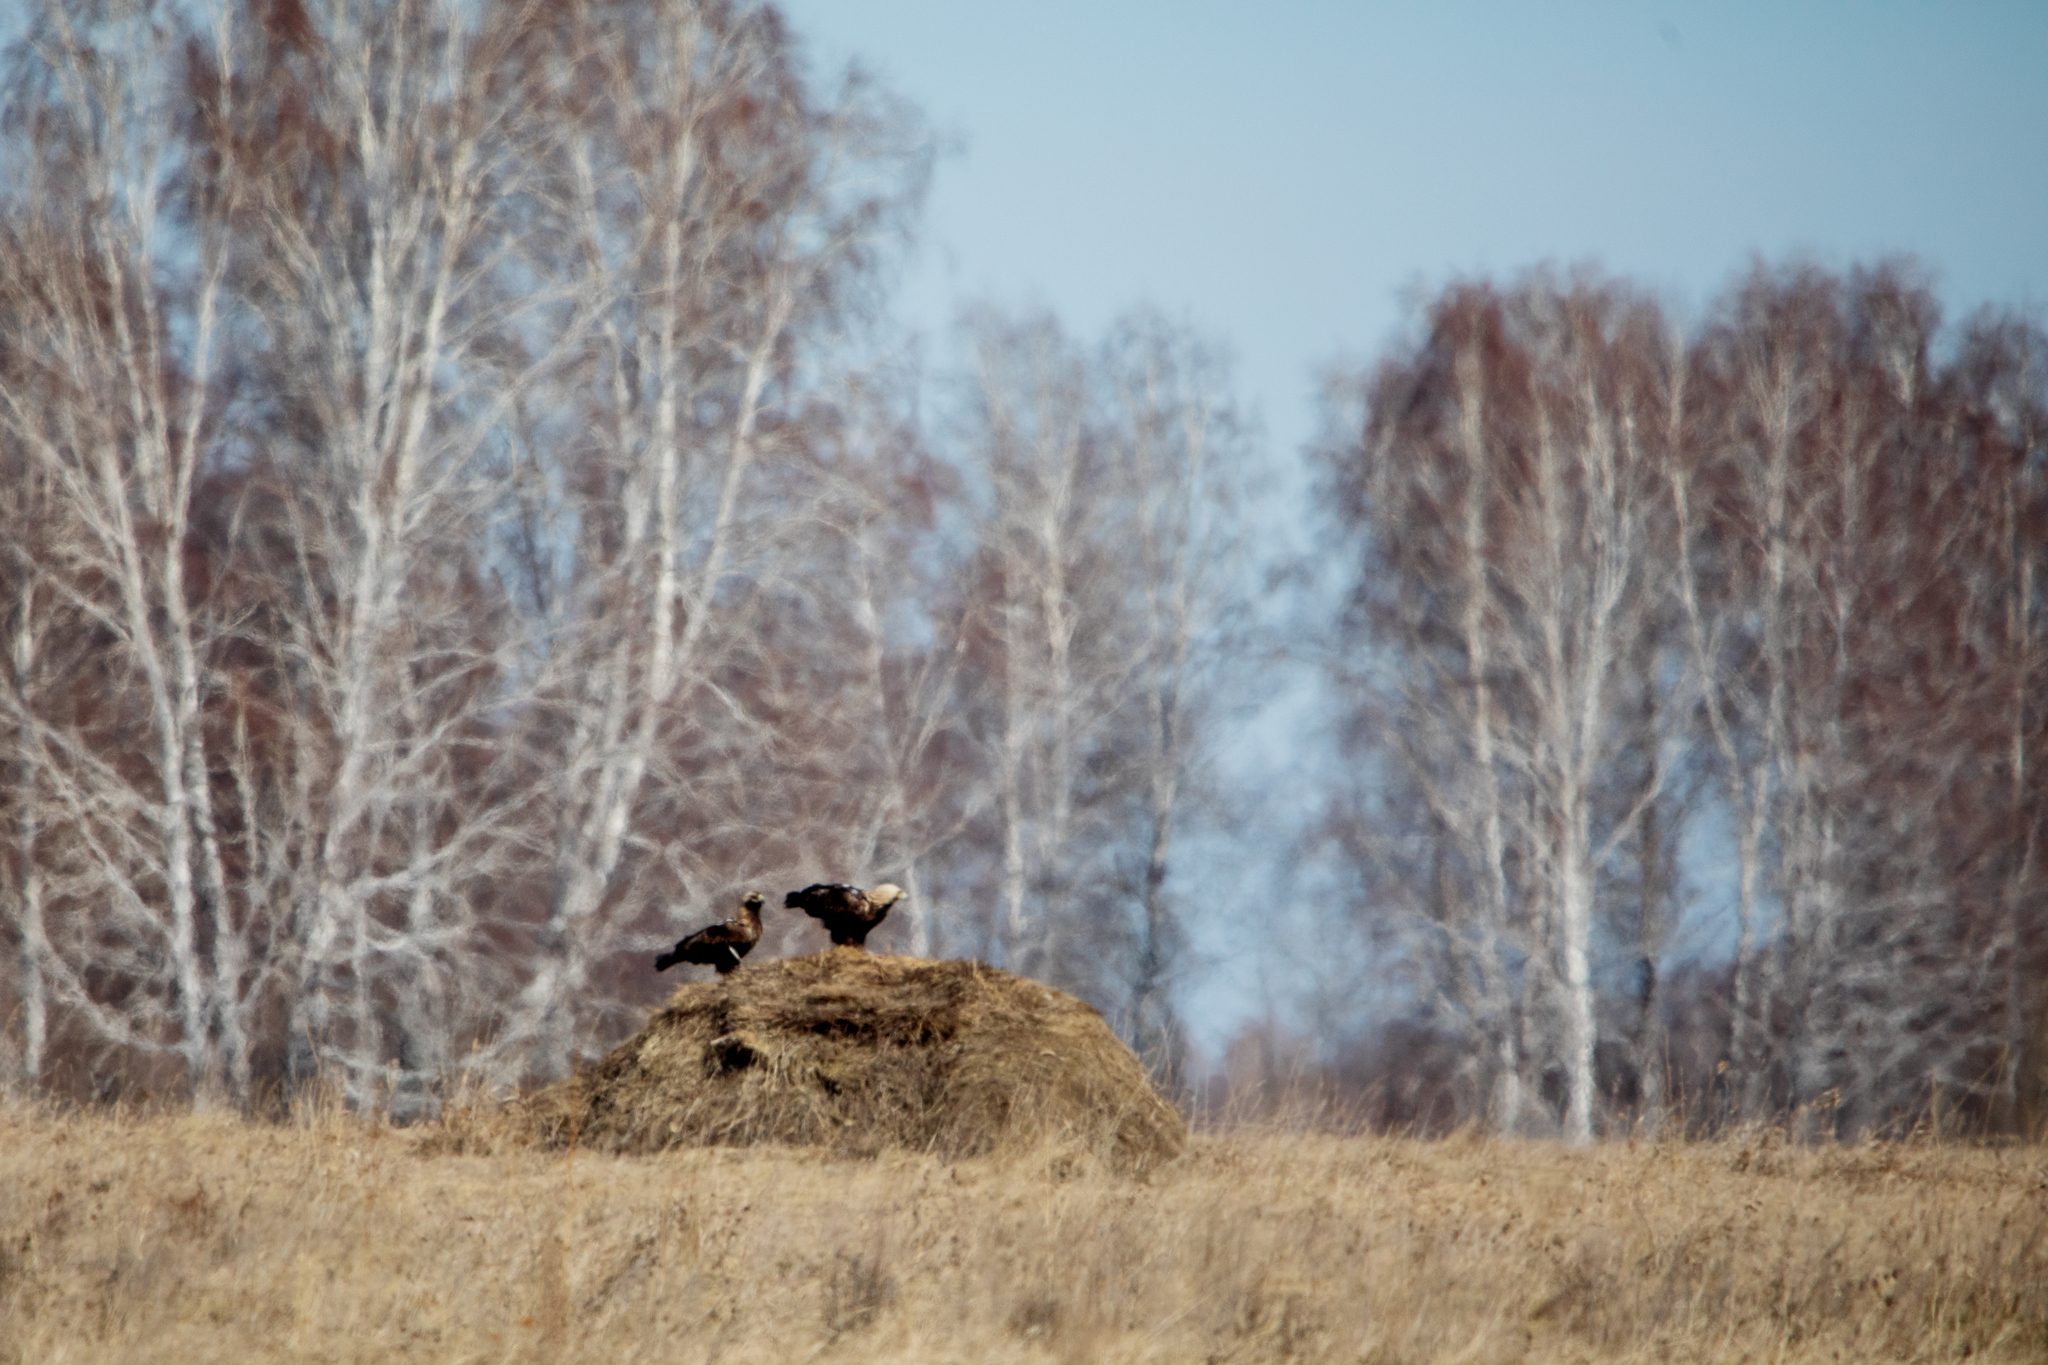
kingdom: Animalia
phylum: Chordata
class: Aves
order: Accipitriformes
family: Accipitridae
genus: Aquila
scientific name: Aquila heliaca
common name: Eastern imperial eagle
